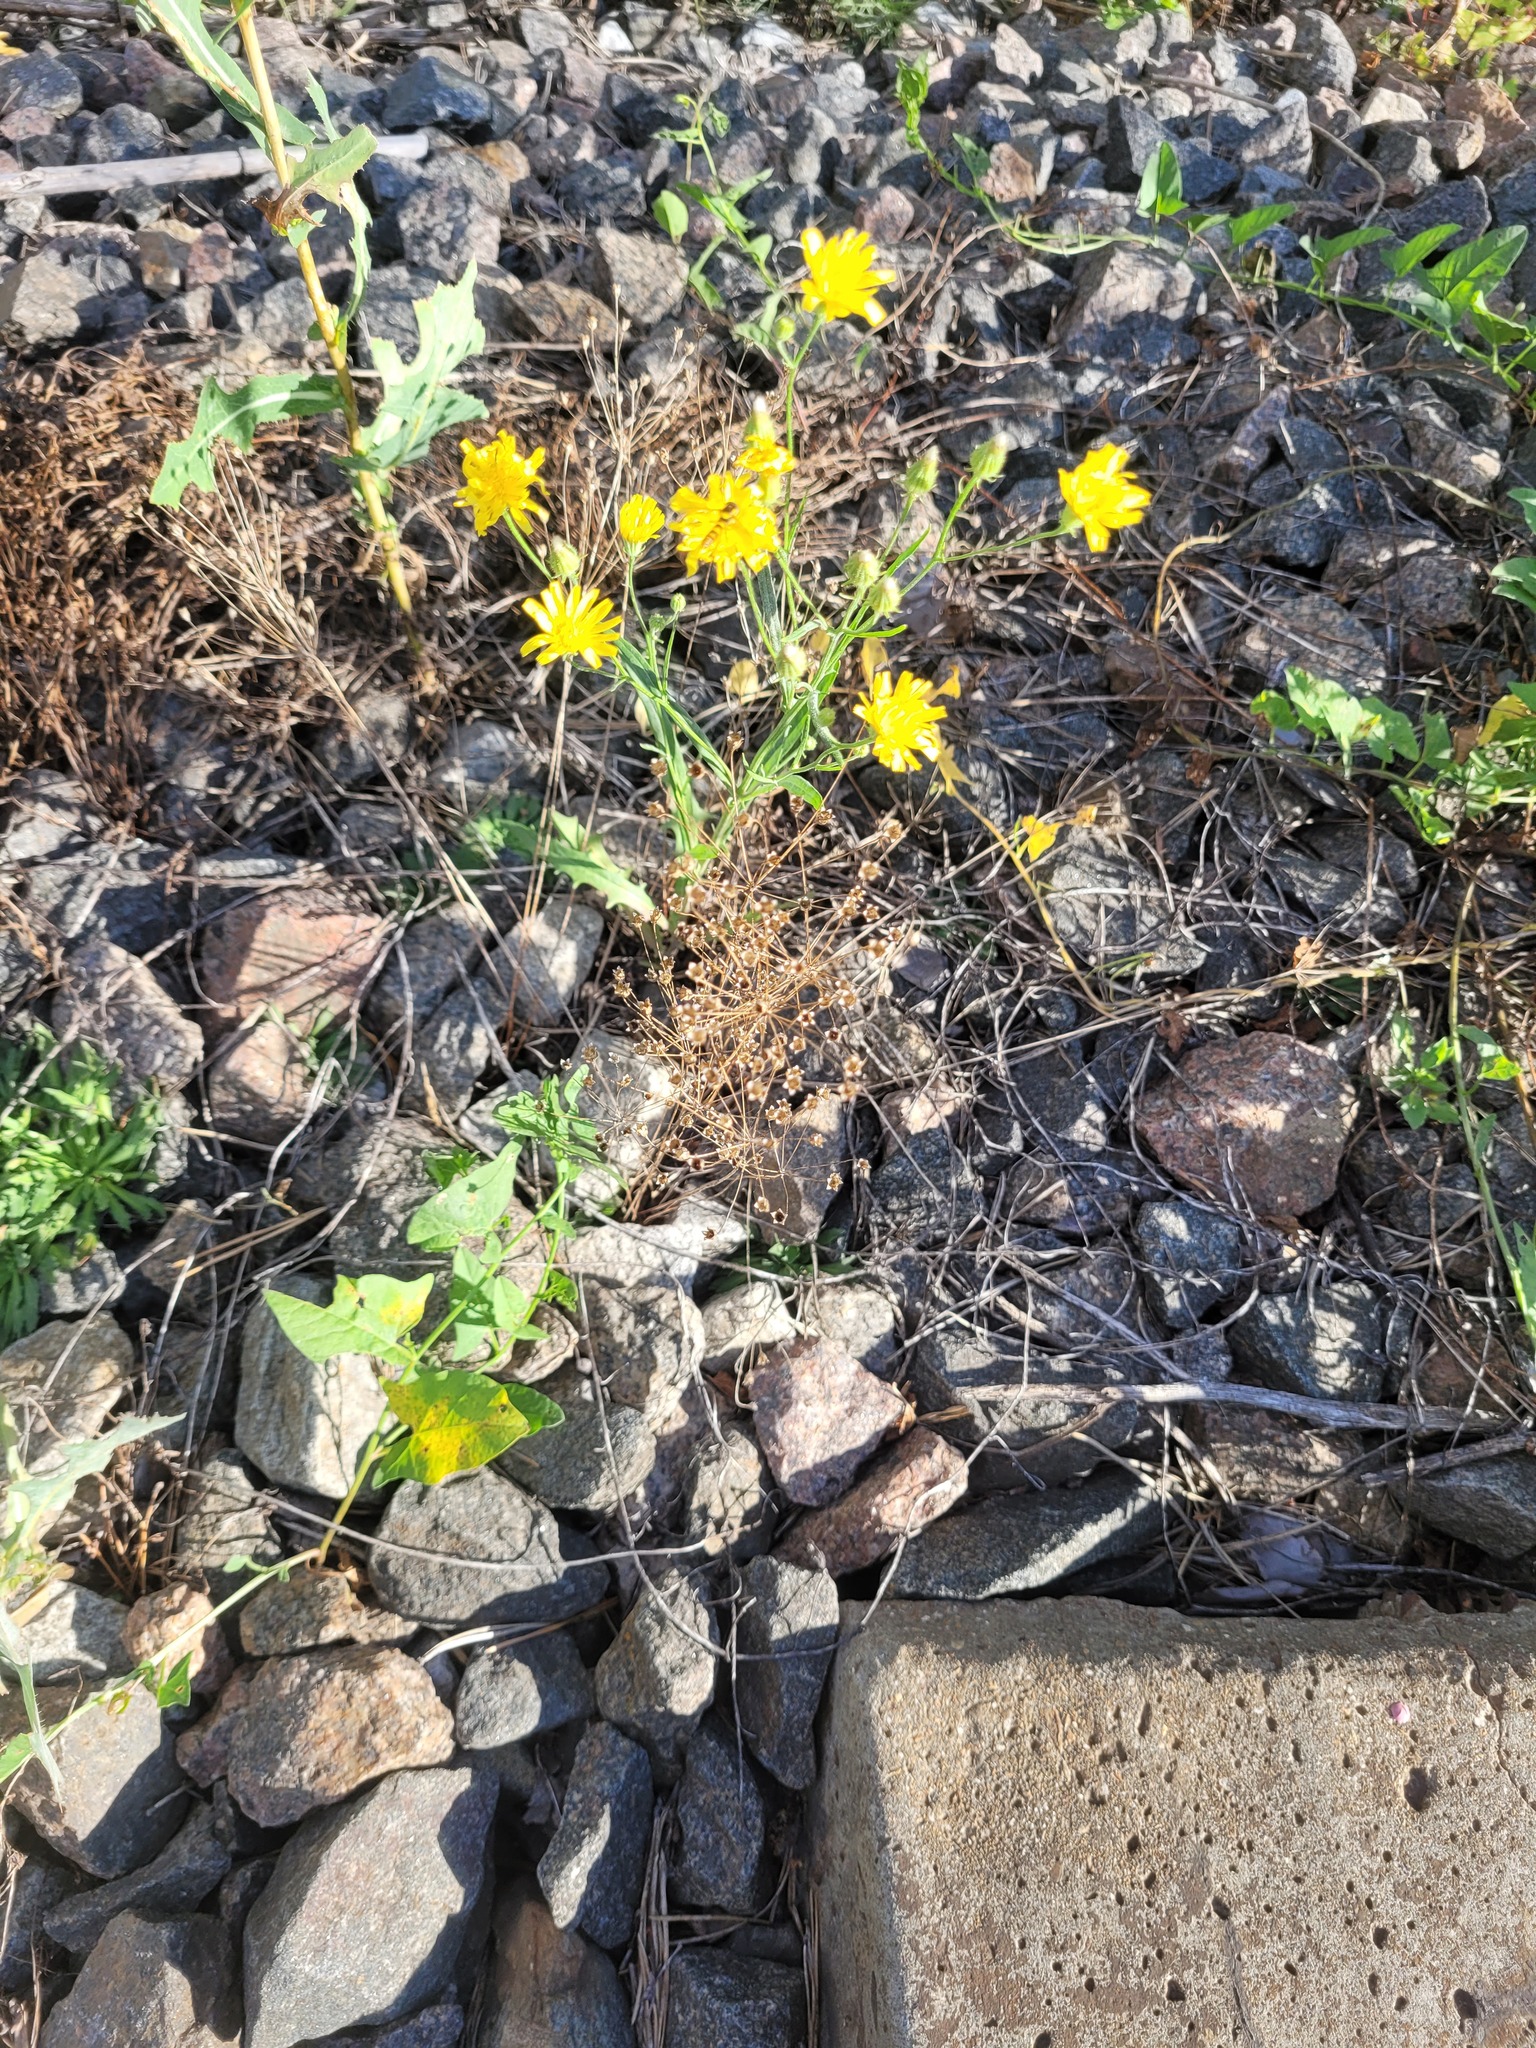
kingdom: Plantae
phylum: Tracheophyta
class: Magnoliopsida
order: Ericales
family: Primulaceae
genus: Androsace
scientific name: Androsace septentrionalis
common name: Hairy northern fairy-candelabra
